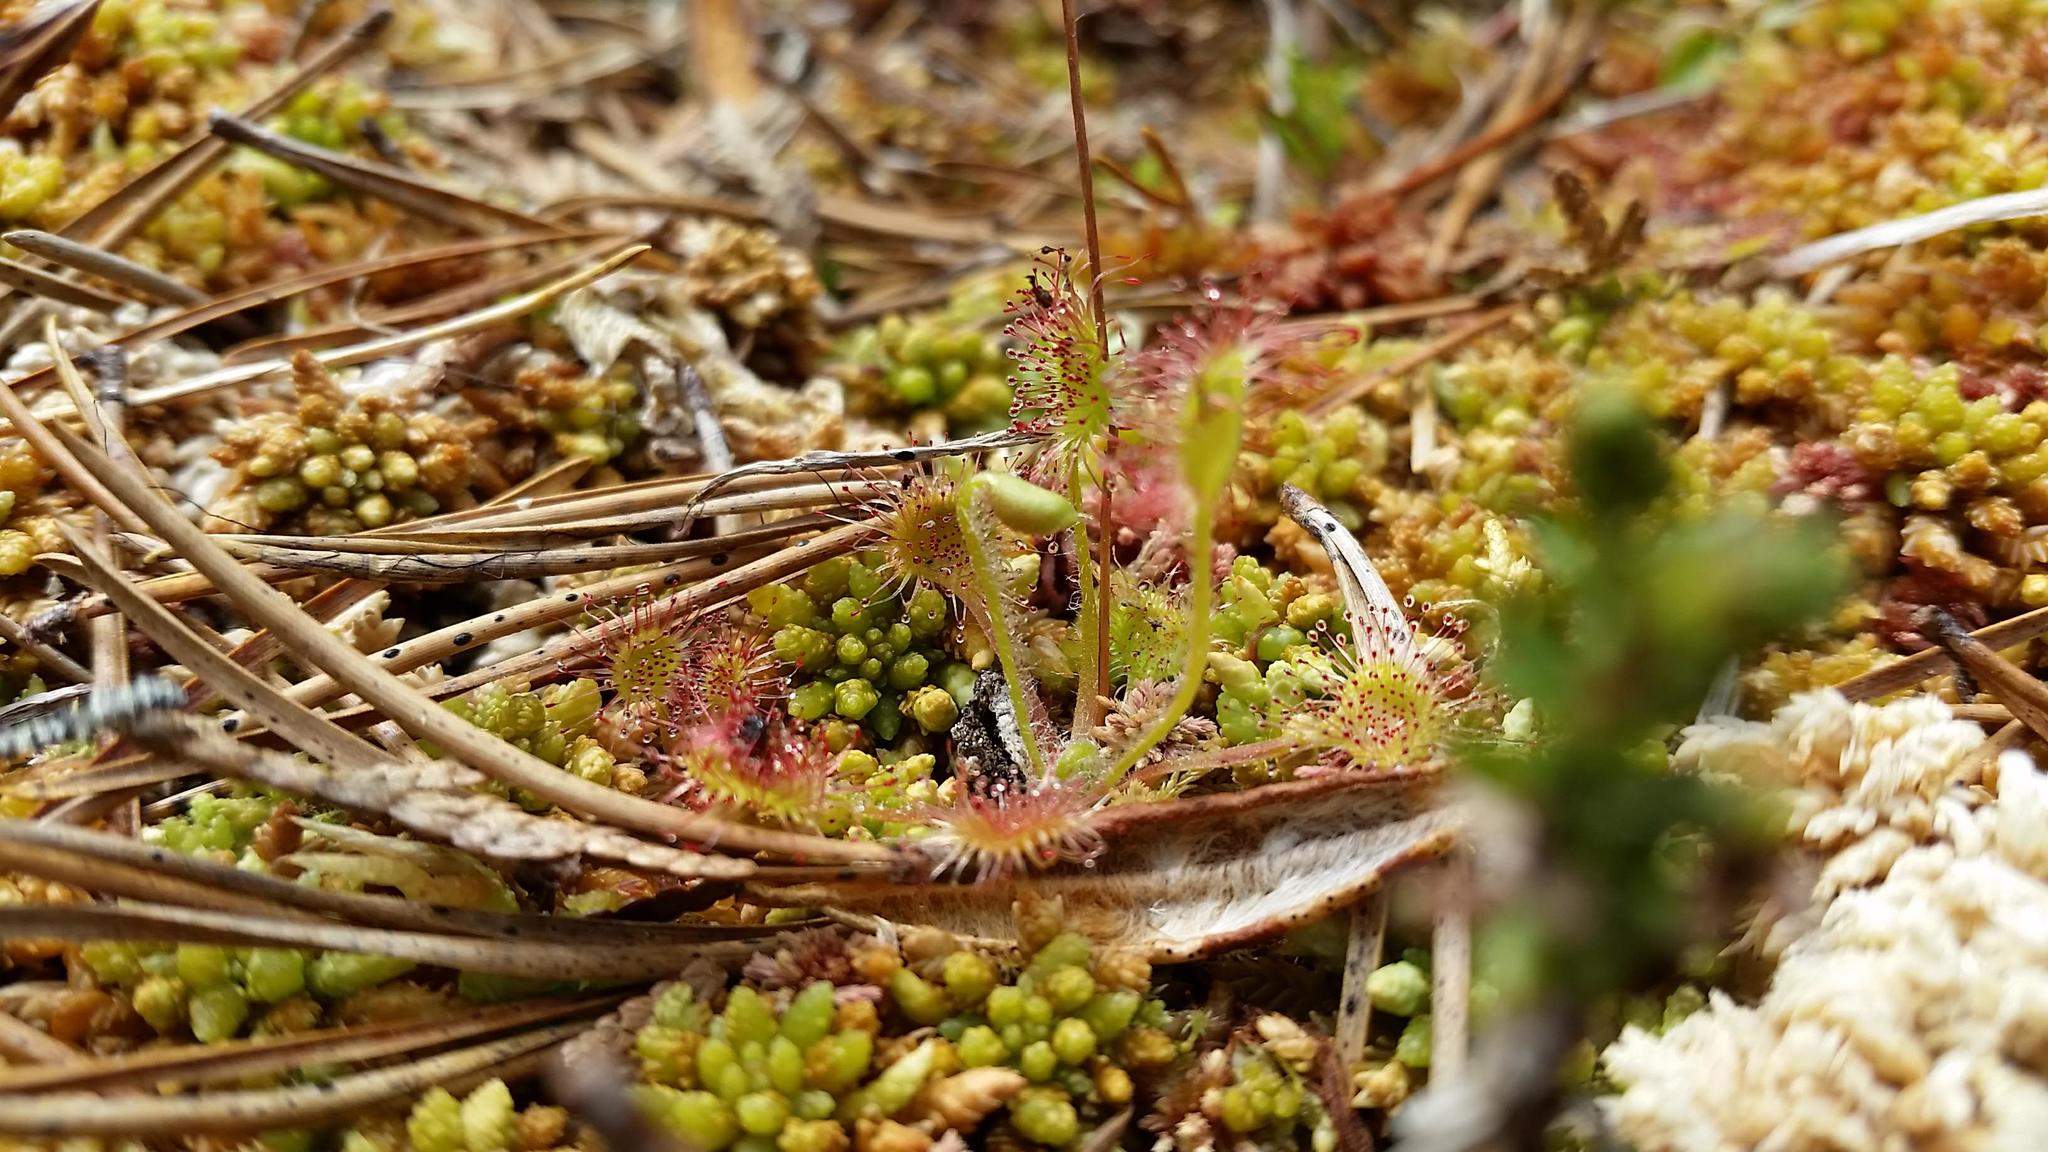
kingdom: Plantae
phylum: Tracheophyta
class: Magnoliopsida
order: Caryophyllales
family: Droseraceae
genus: Drosera
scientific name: Drosera rotundifolia
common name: Round-leaved sundew
